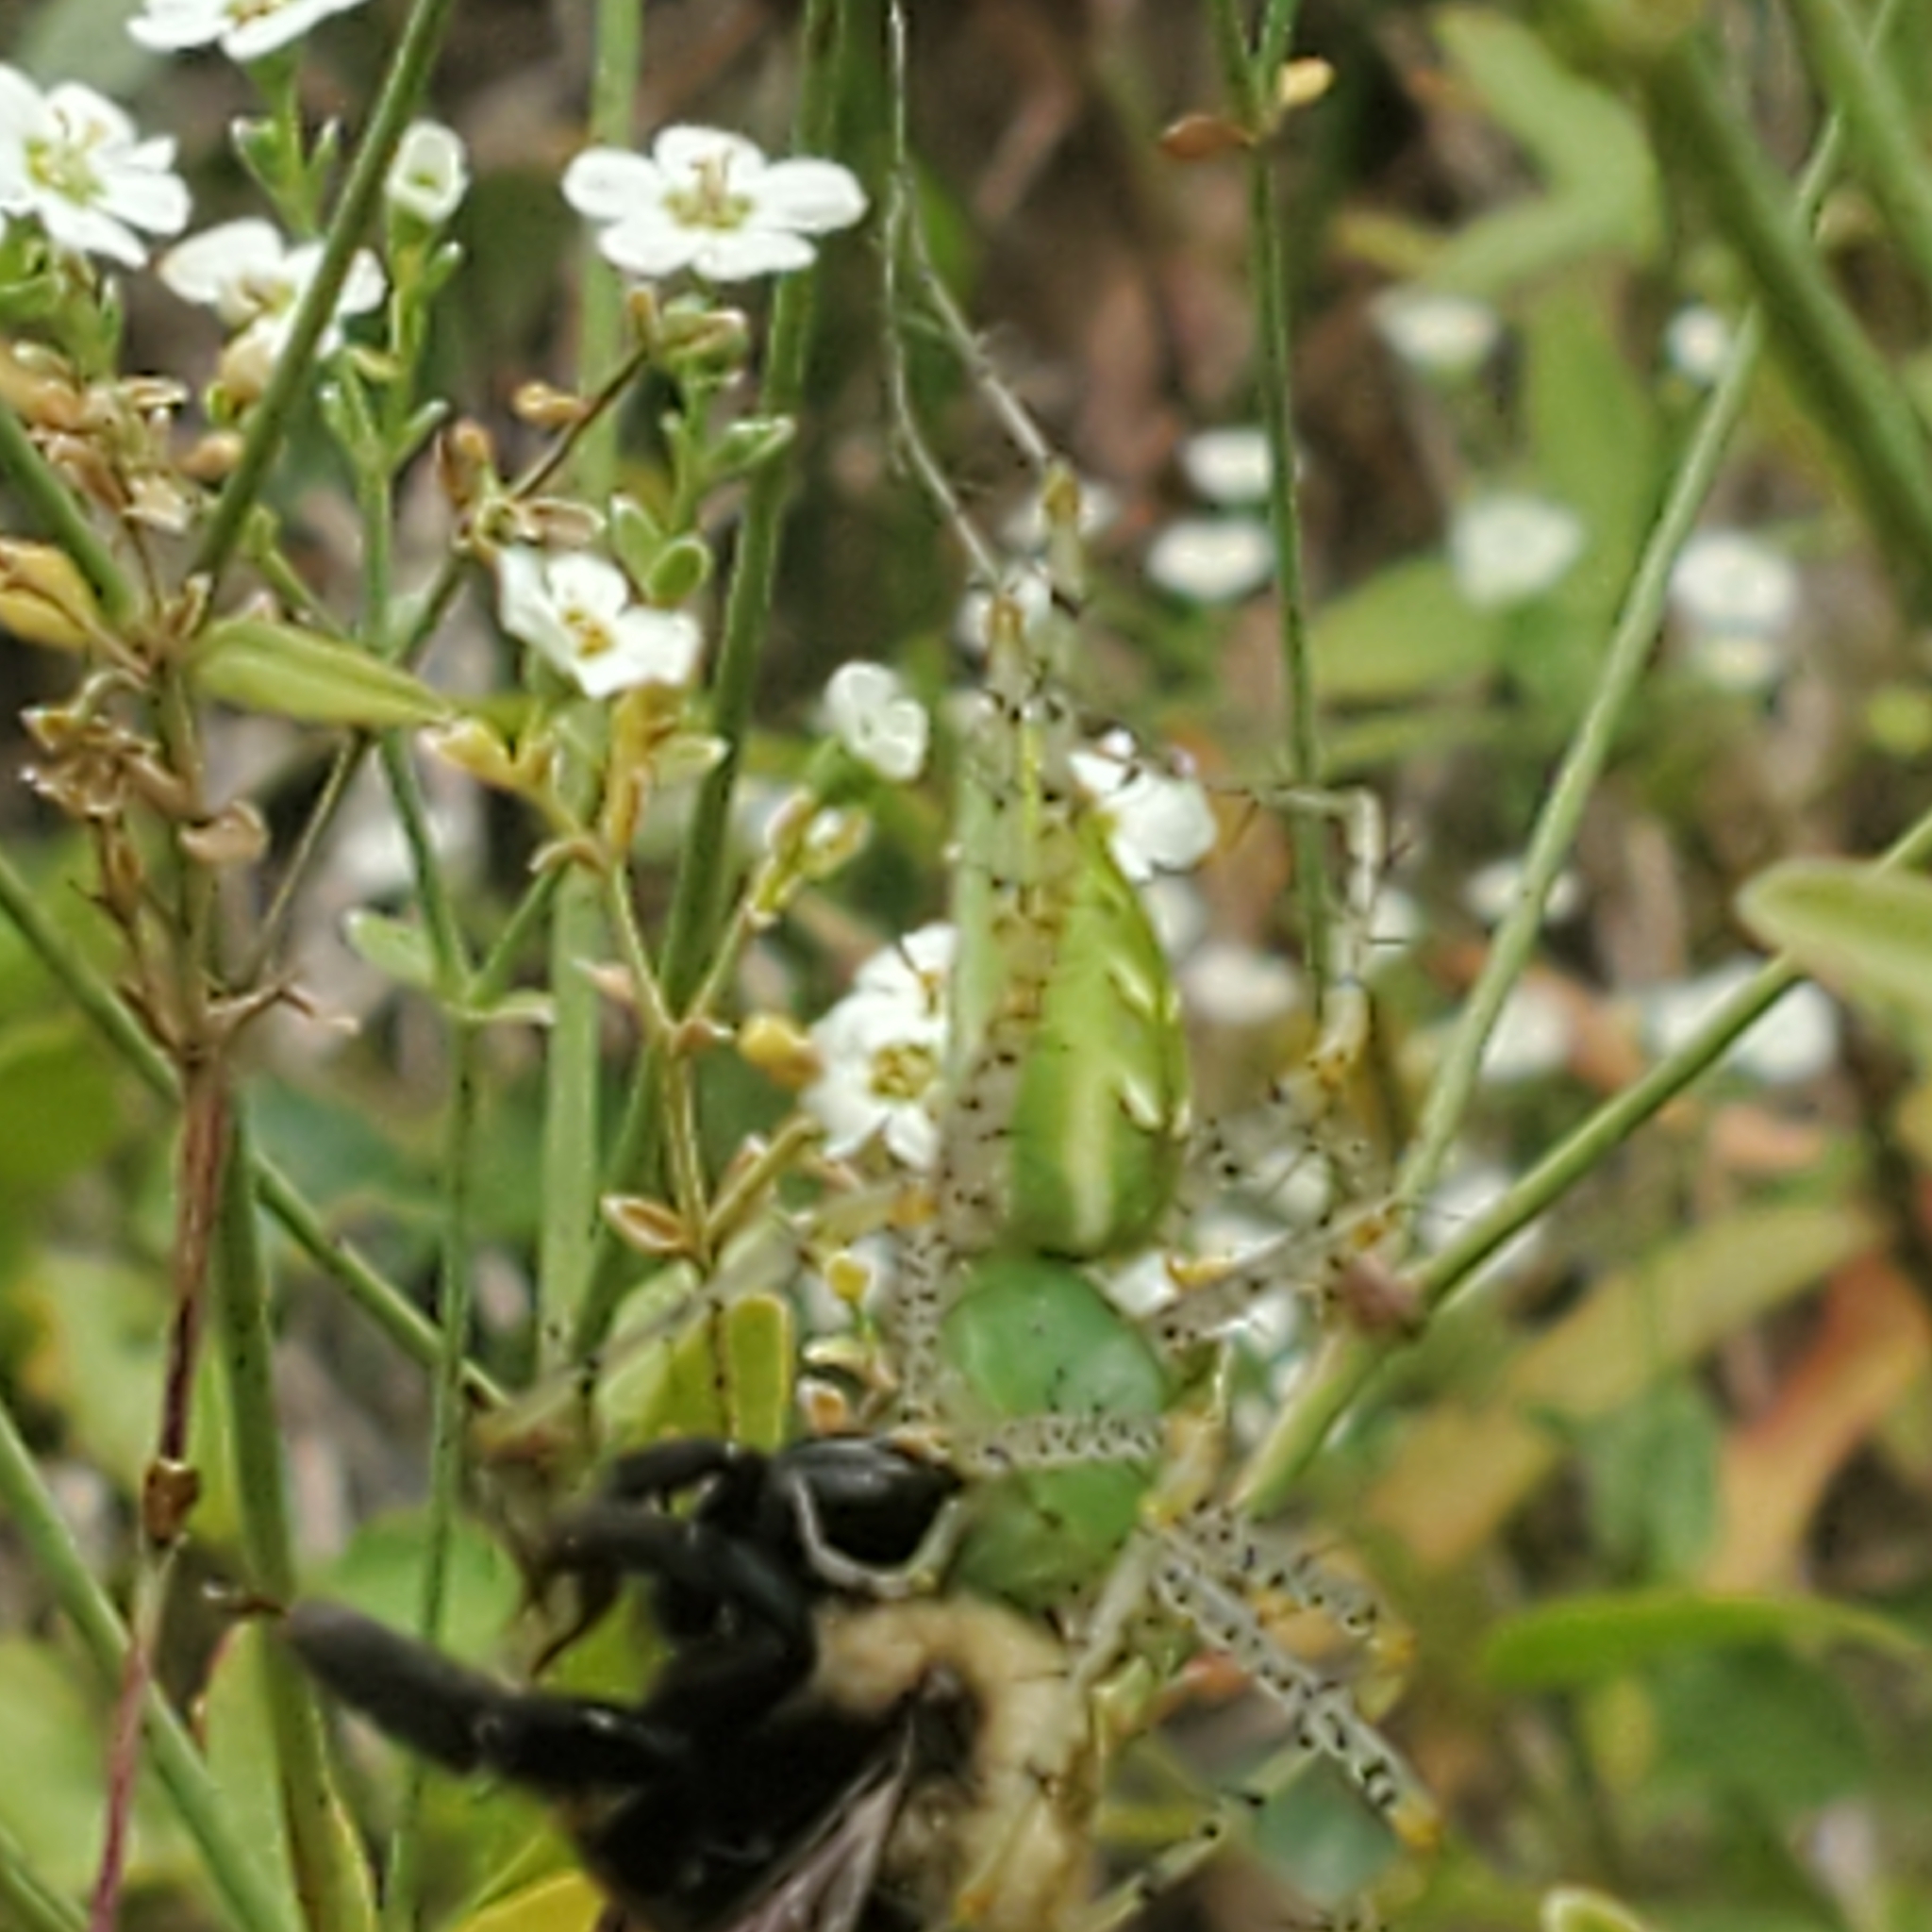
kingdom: Animalia
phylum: Arthropoda
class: Arachnida
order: Araneae
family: Oxyopidae
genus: Peucetia
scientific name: Peucetia viridans
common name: Lynx spiders
